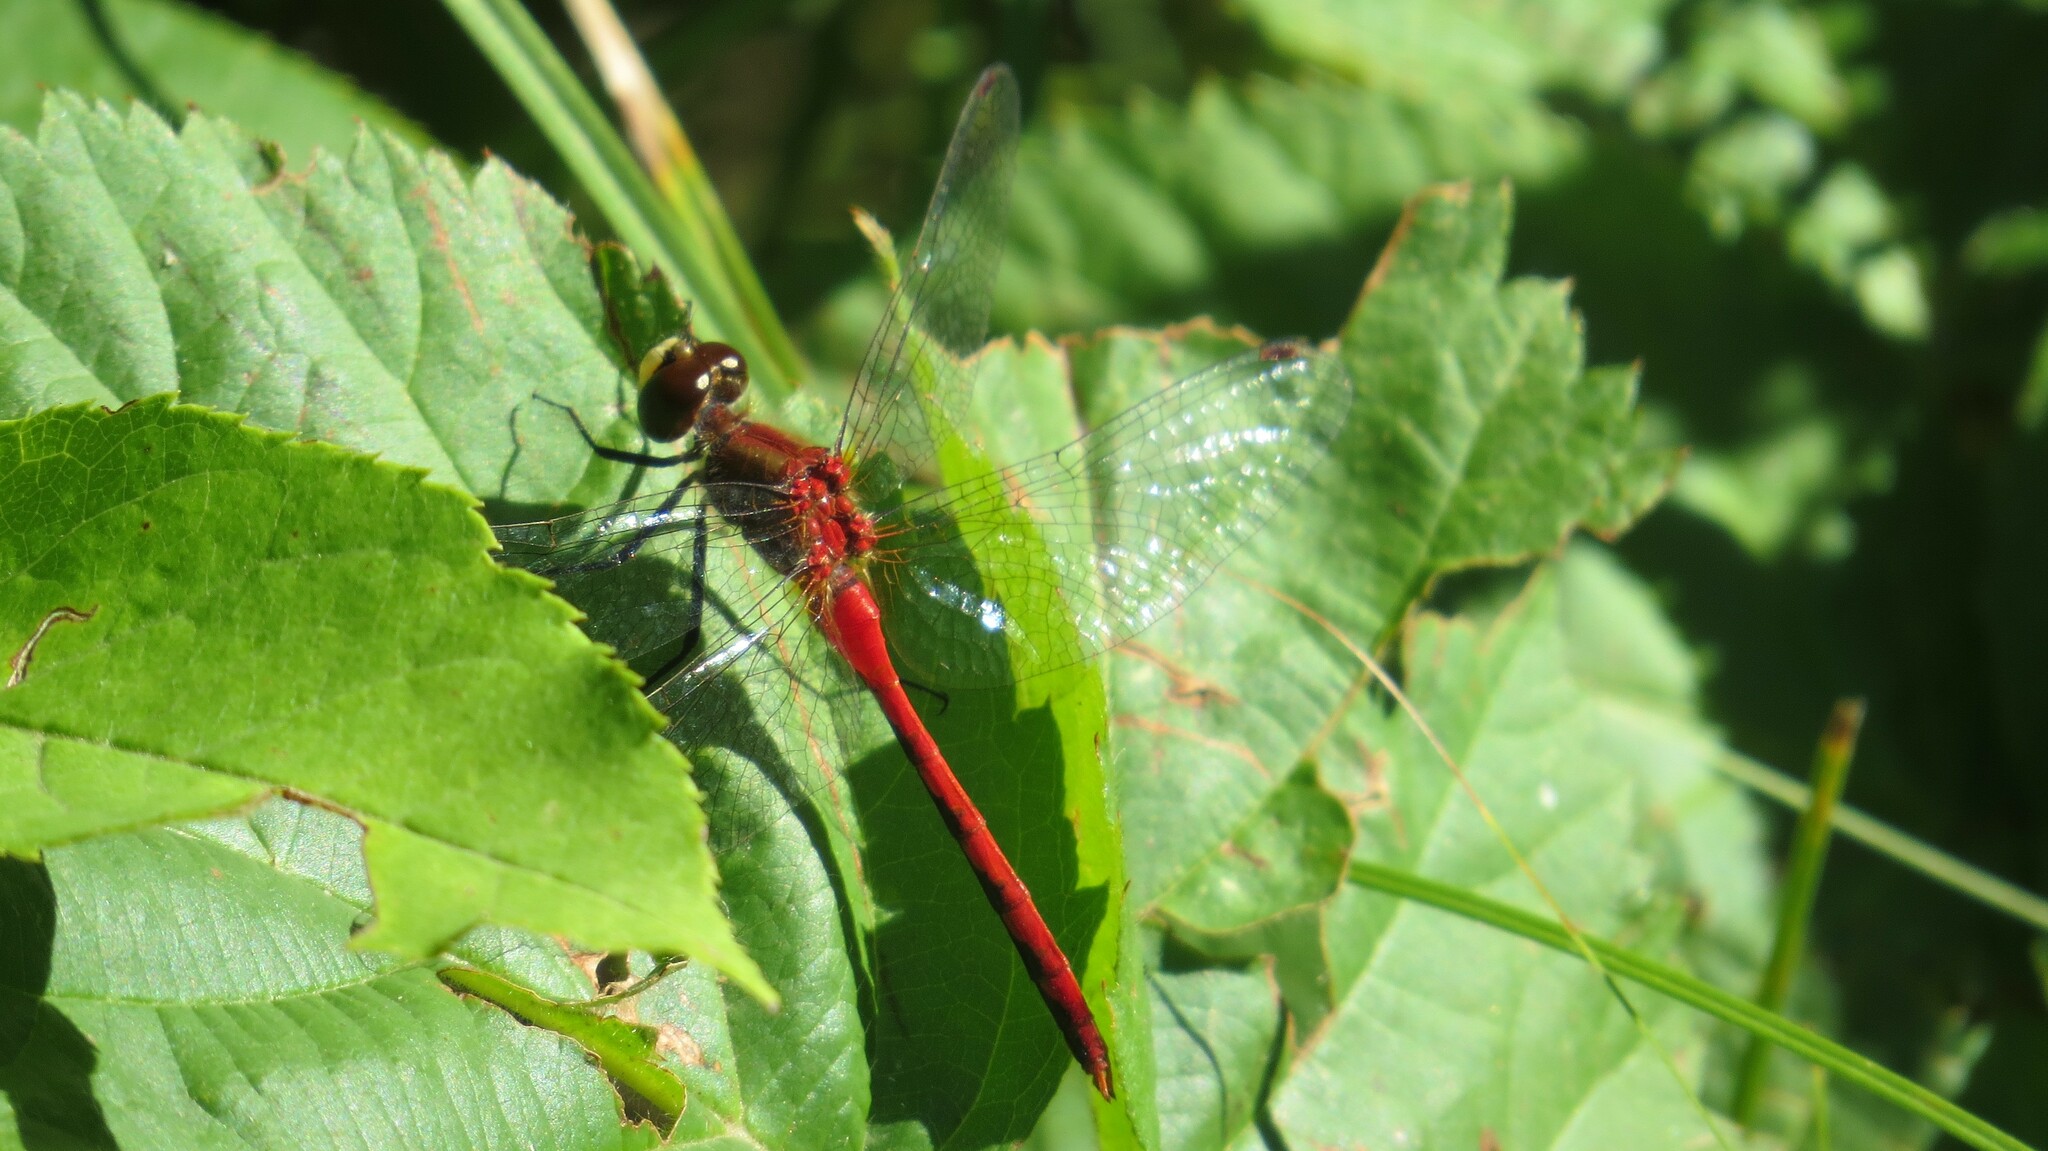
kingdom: Animalia
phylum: Arthropoda
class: Insecta
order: Odonata
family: Libellulidae
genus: Sympetrum
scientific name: Sympetrum obtrusum
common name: White-faced meadowhawk
